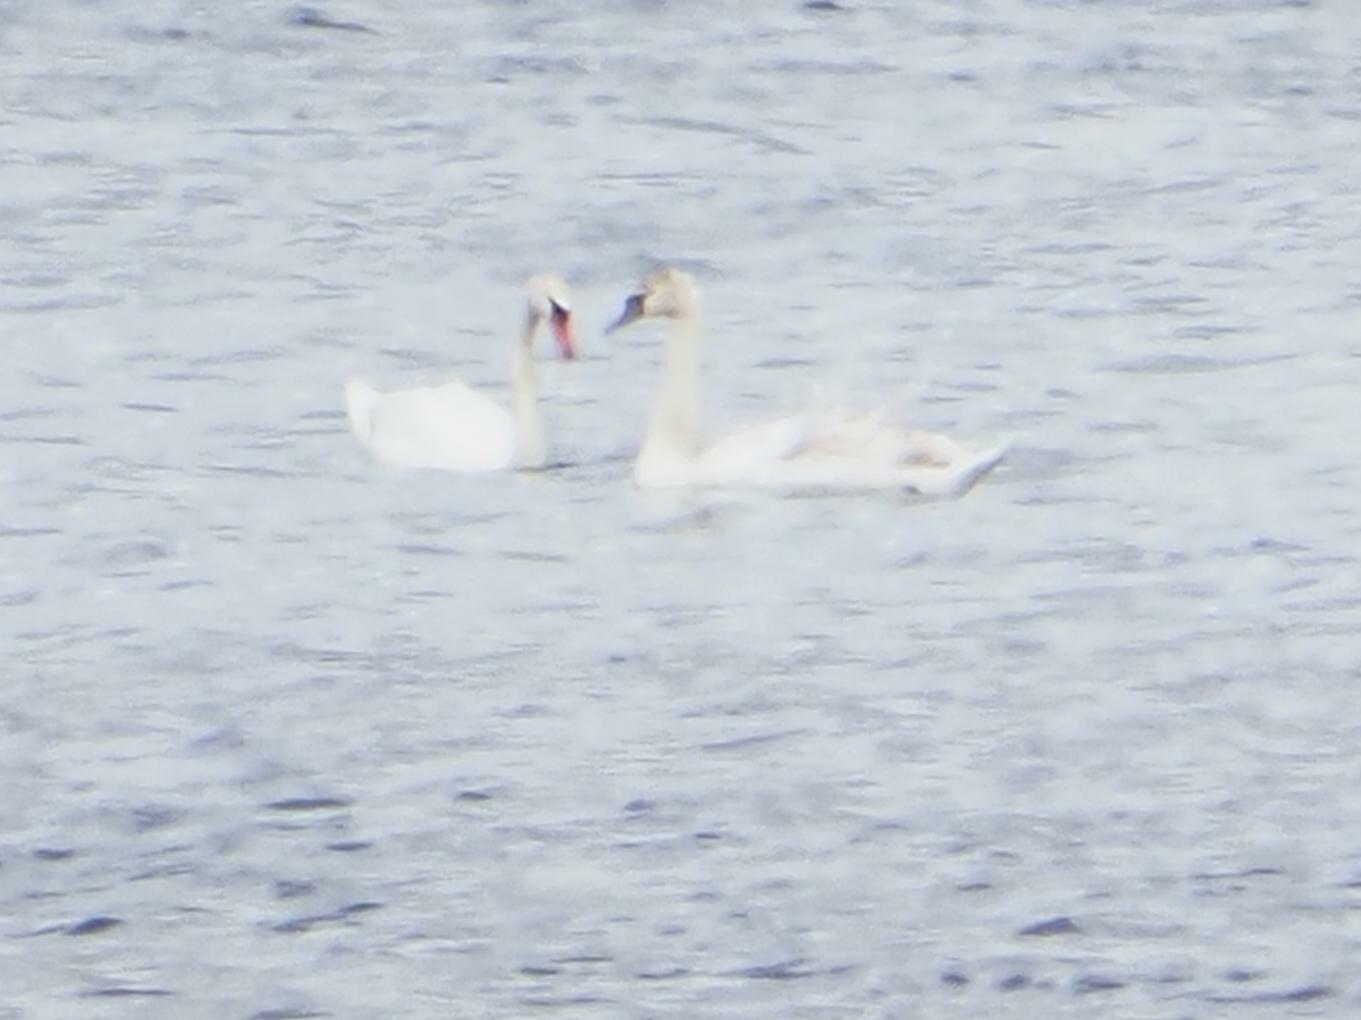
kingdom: Animalia
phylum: Chordata
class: Aves
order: Anseriformes
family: Anatidae
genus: Cygnus
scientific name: Cygnus olor
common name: Mute swan
